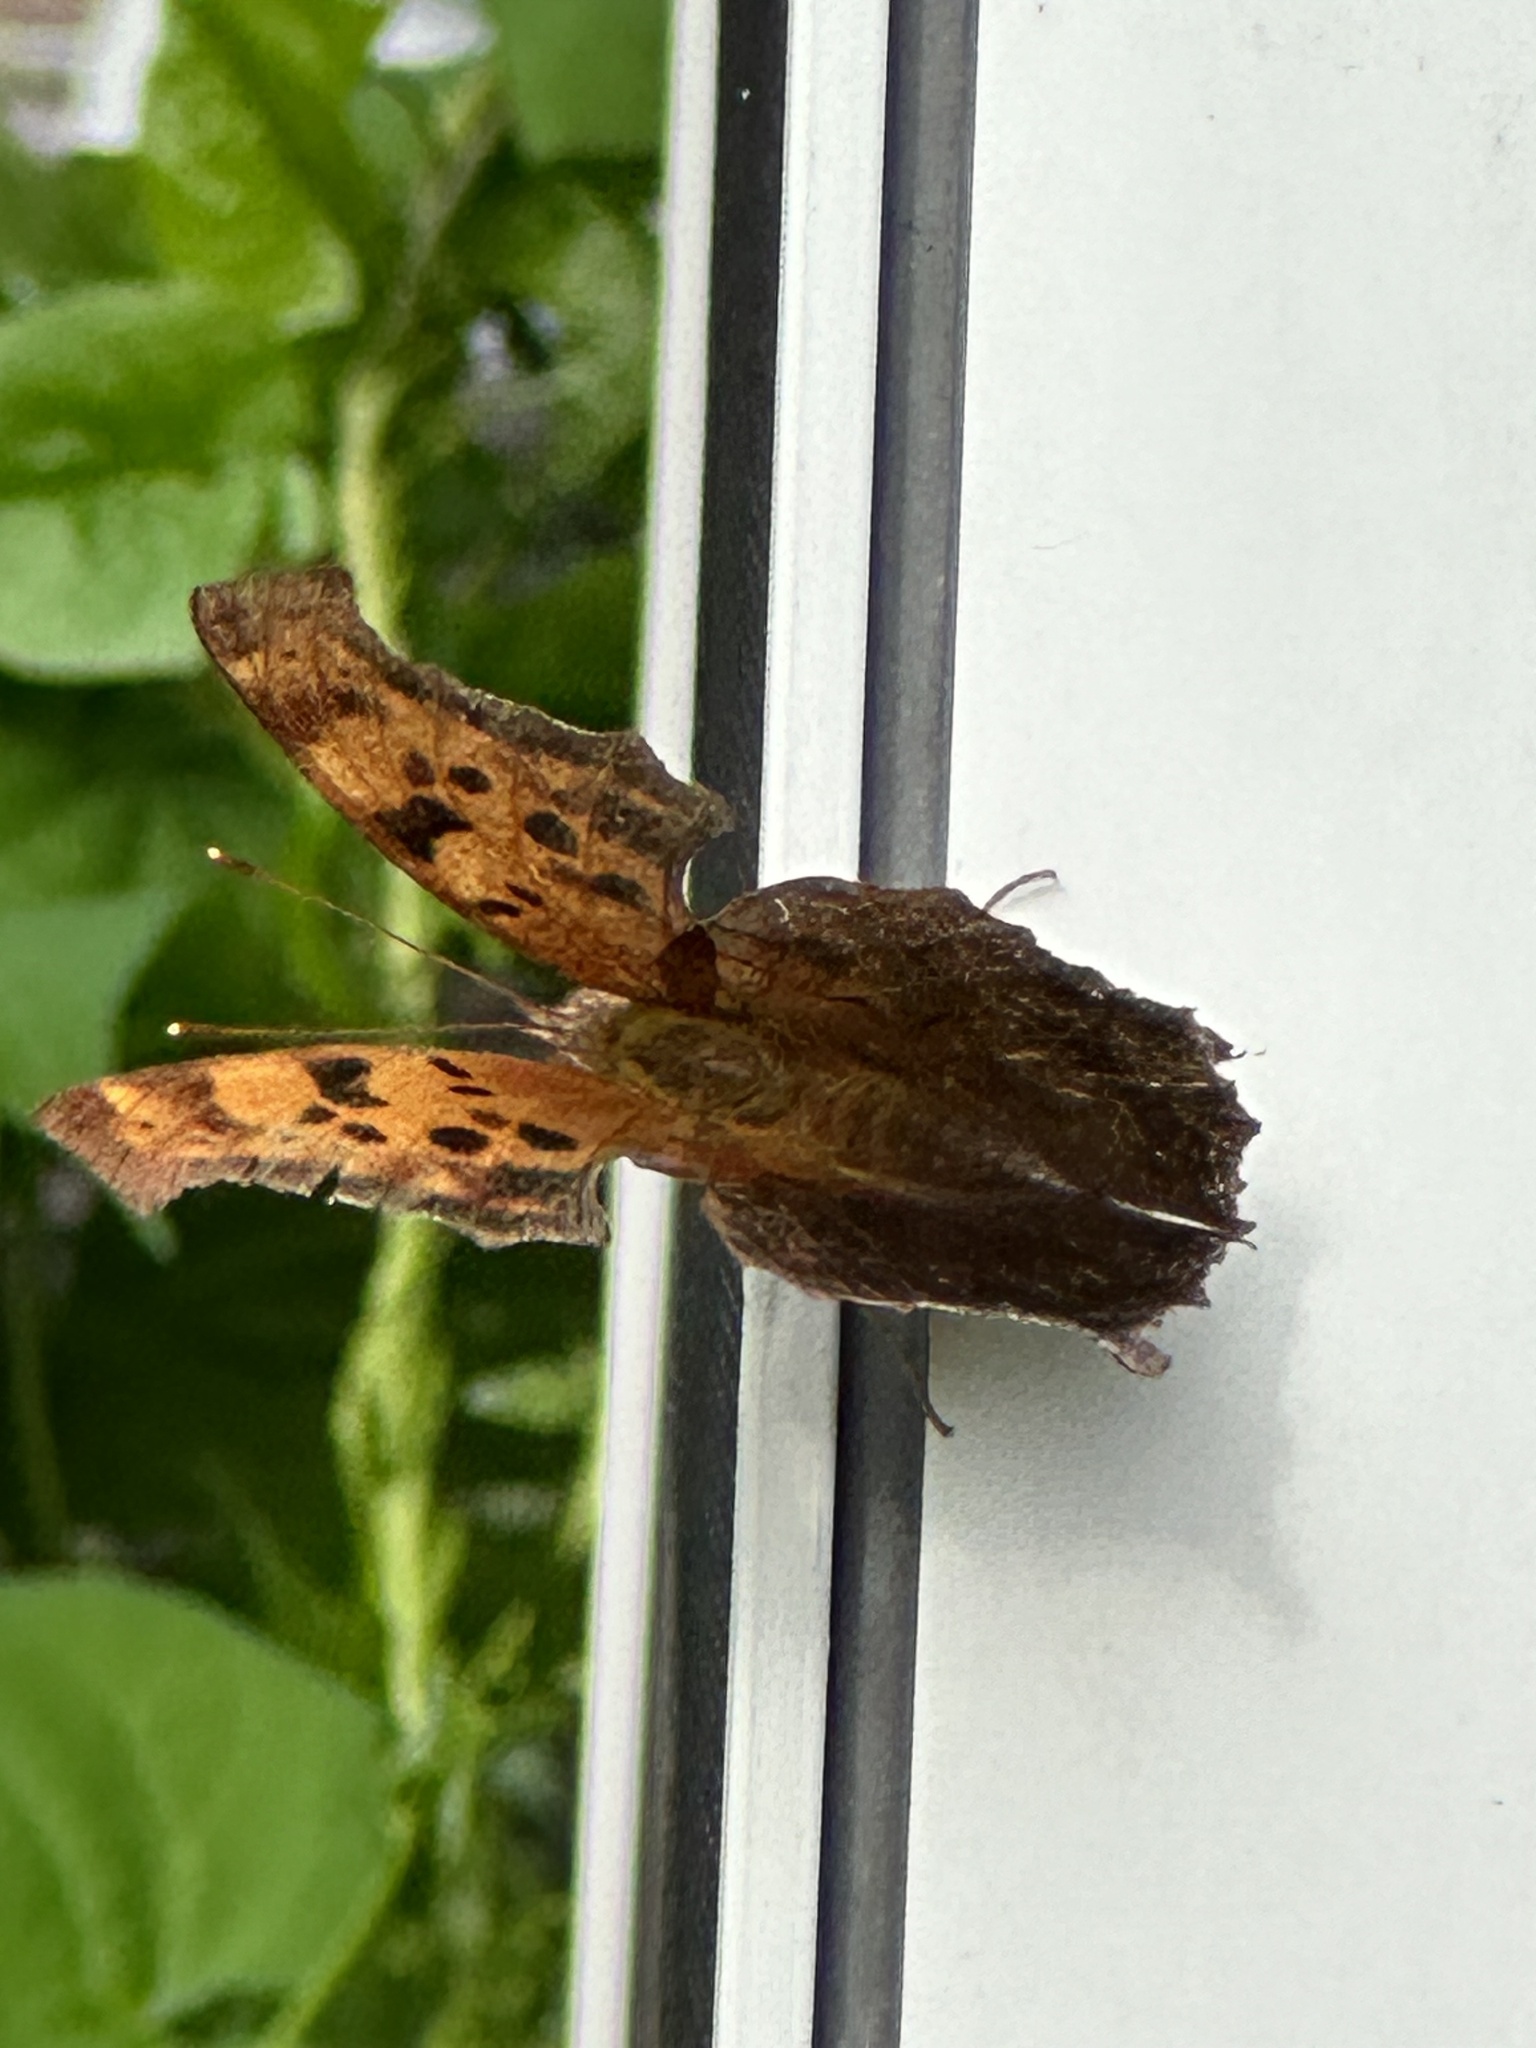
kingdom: Animalia
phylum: Arthropoda
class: Insecta
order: Lepidoptera
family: Nymphalidae
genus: Polygonia
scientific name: Polygonia interrogationis
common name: Question mark
